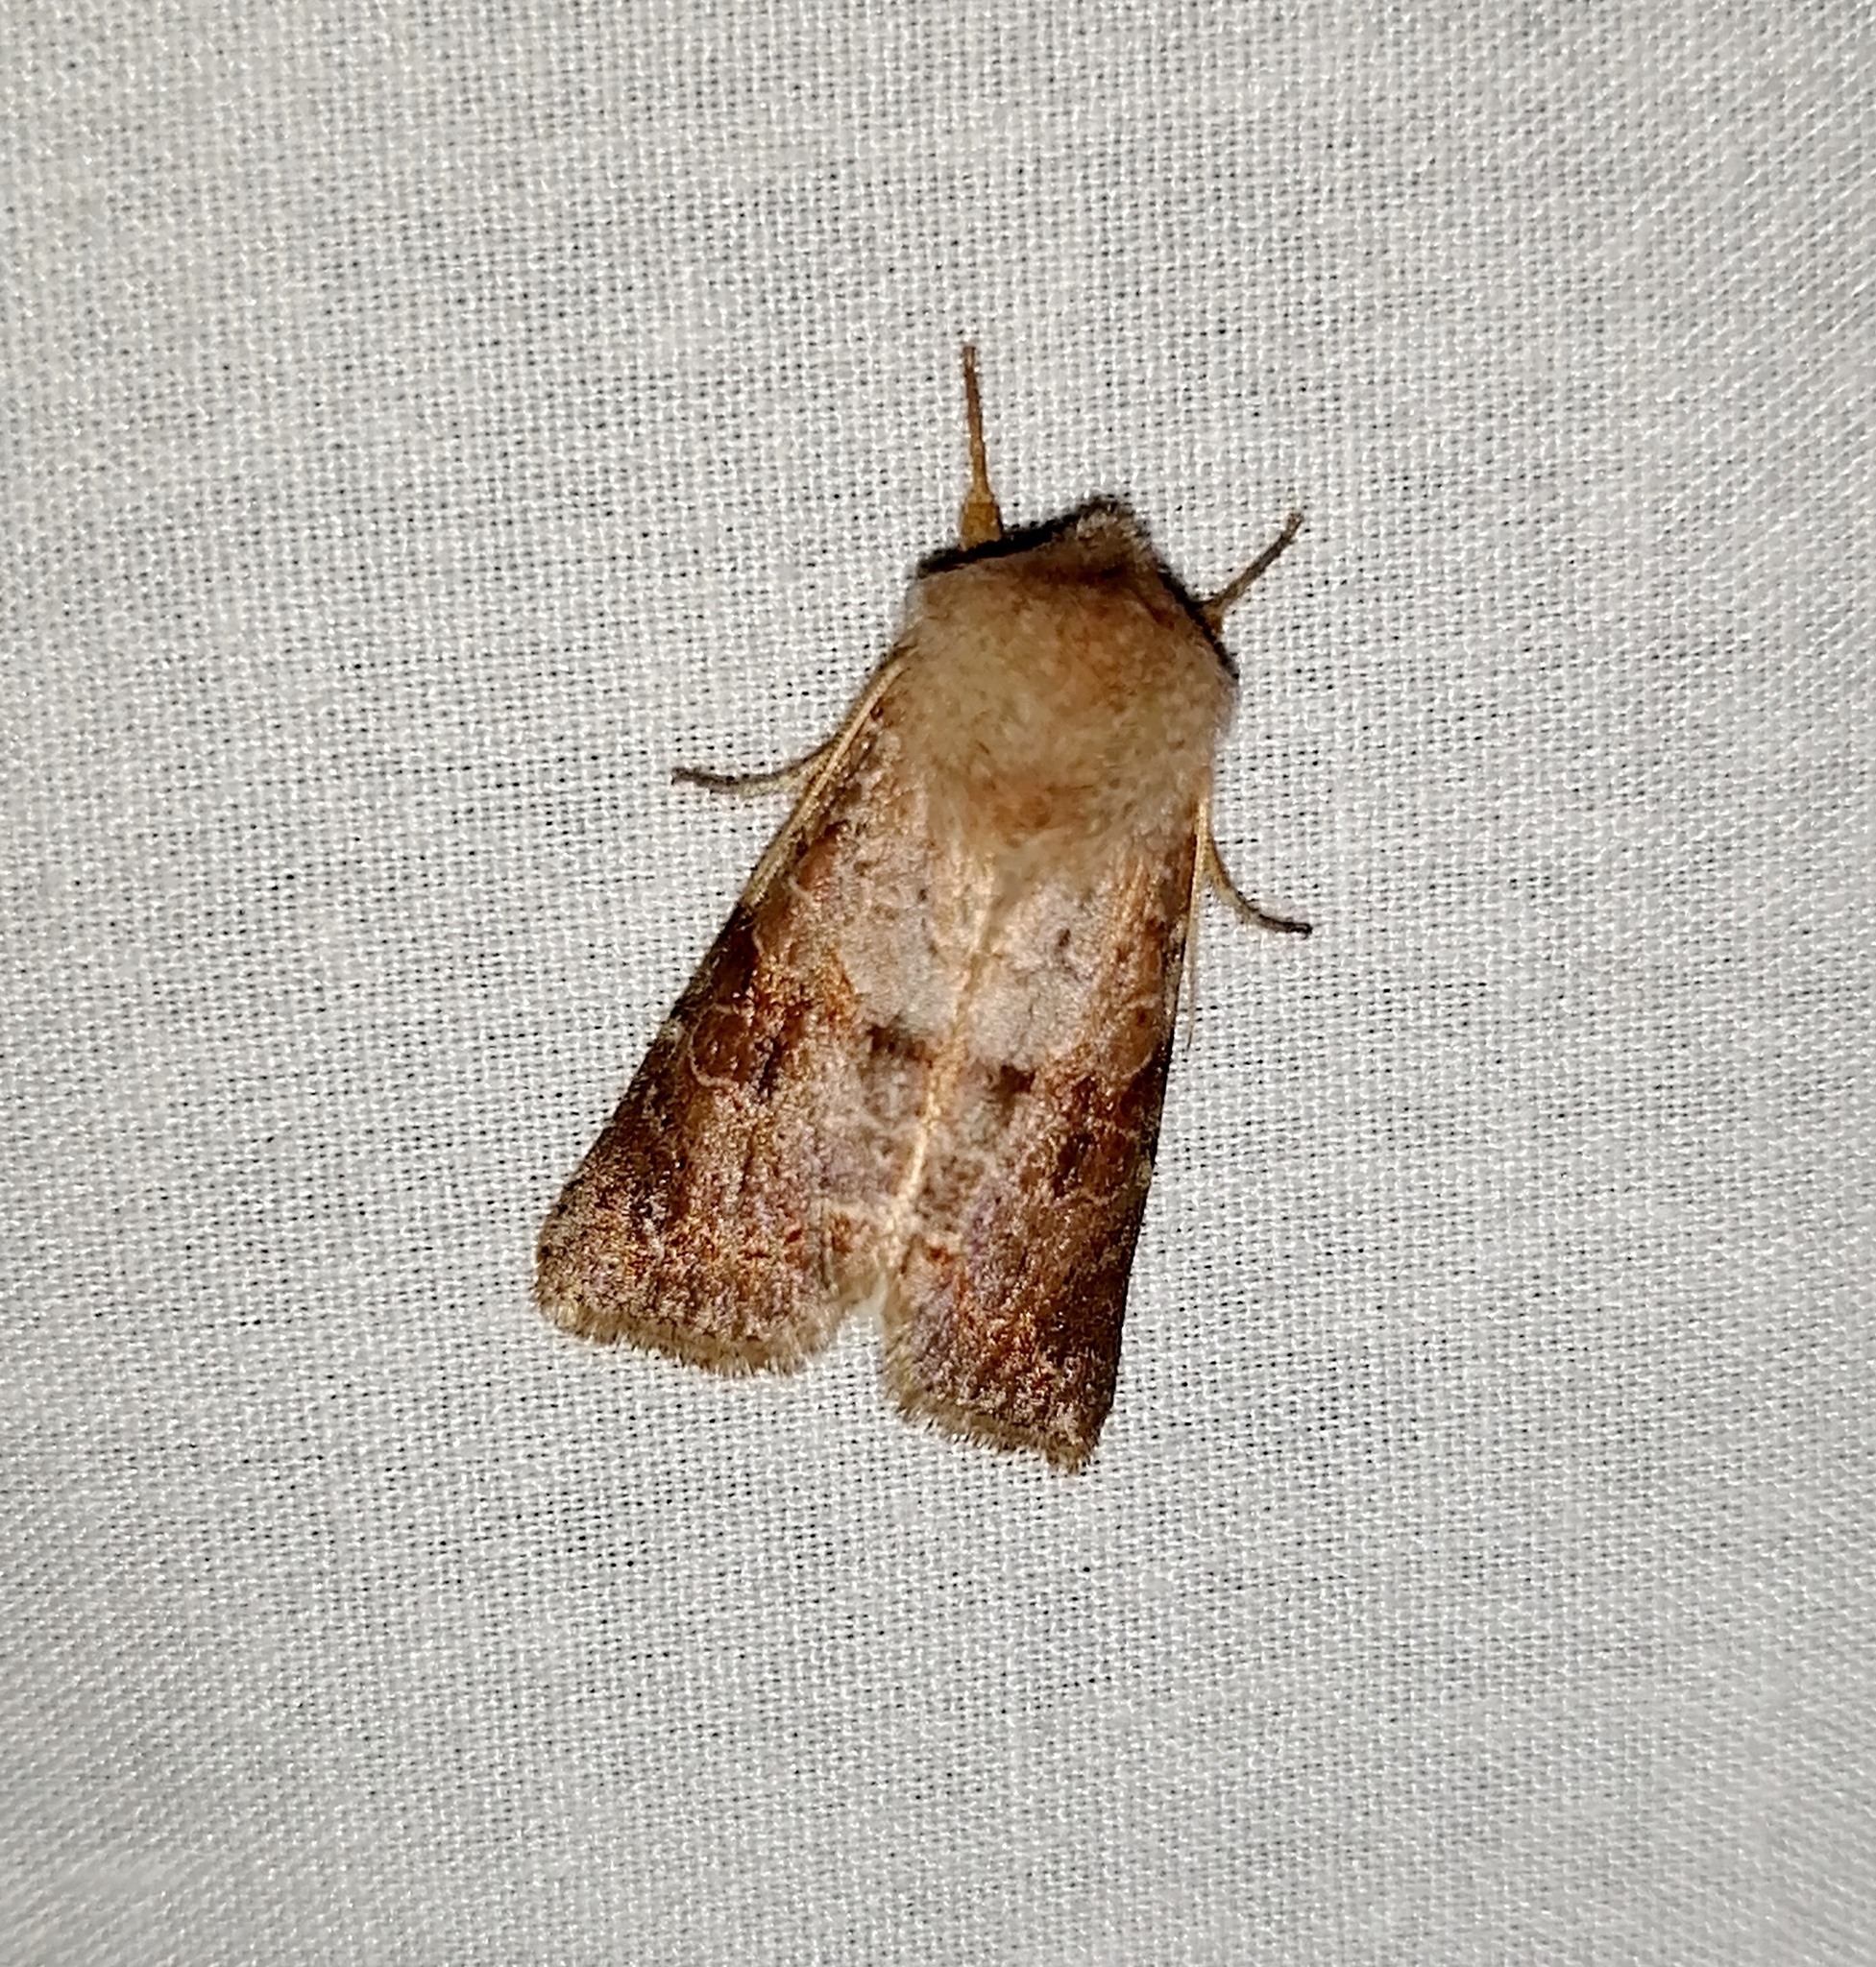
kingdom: Animalia
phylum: Arthropoda
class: Insecta
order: Lepidoptera
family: Noctuidae
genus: Orthosia
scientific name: Orthosia revicta
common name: Rusty whitesided caterpillar
